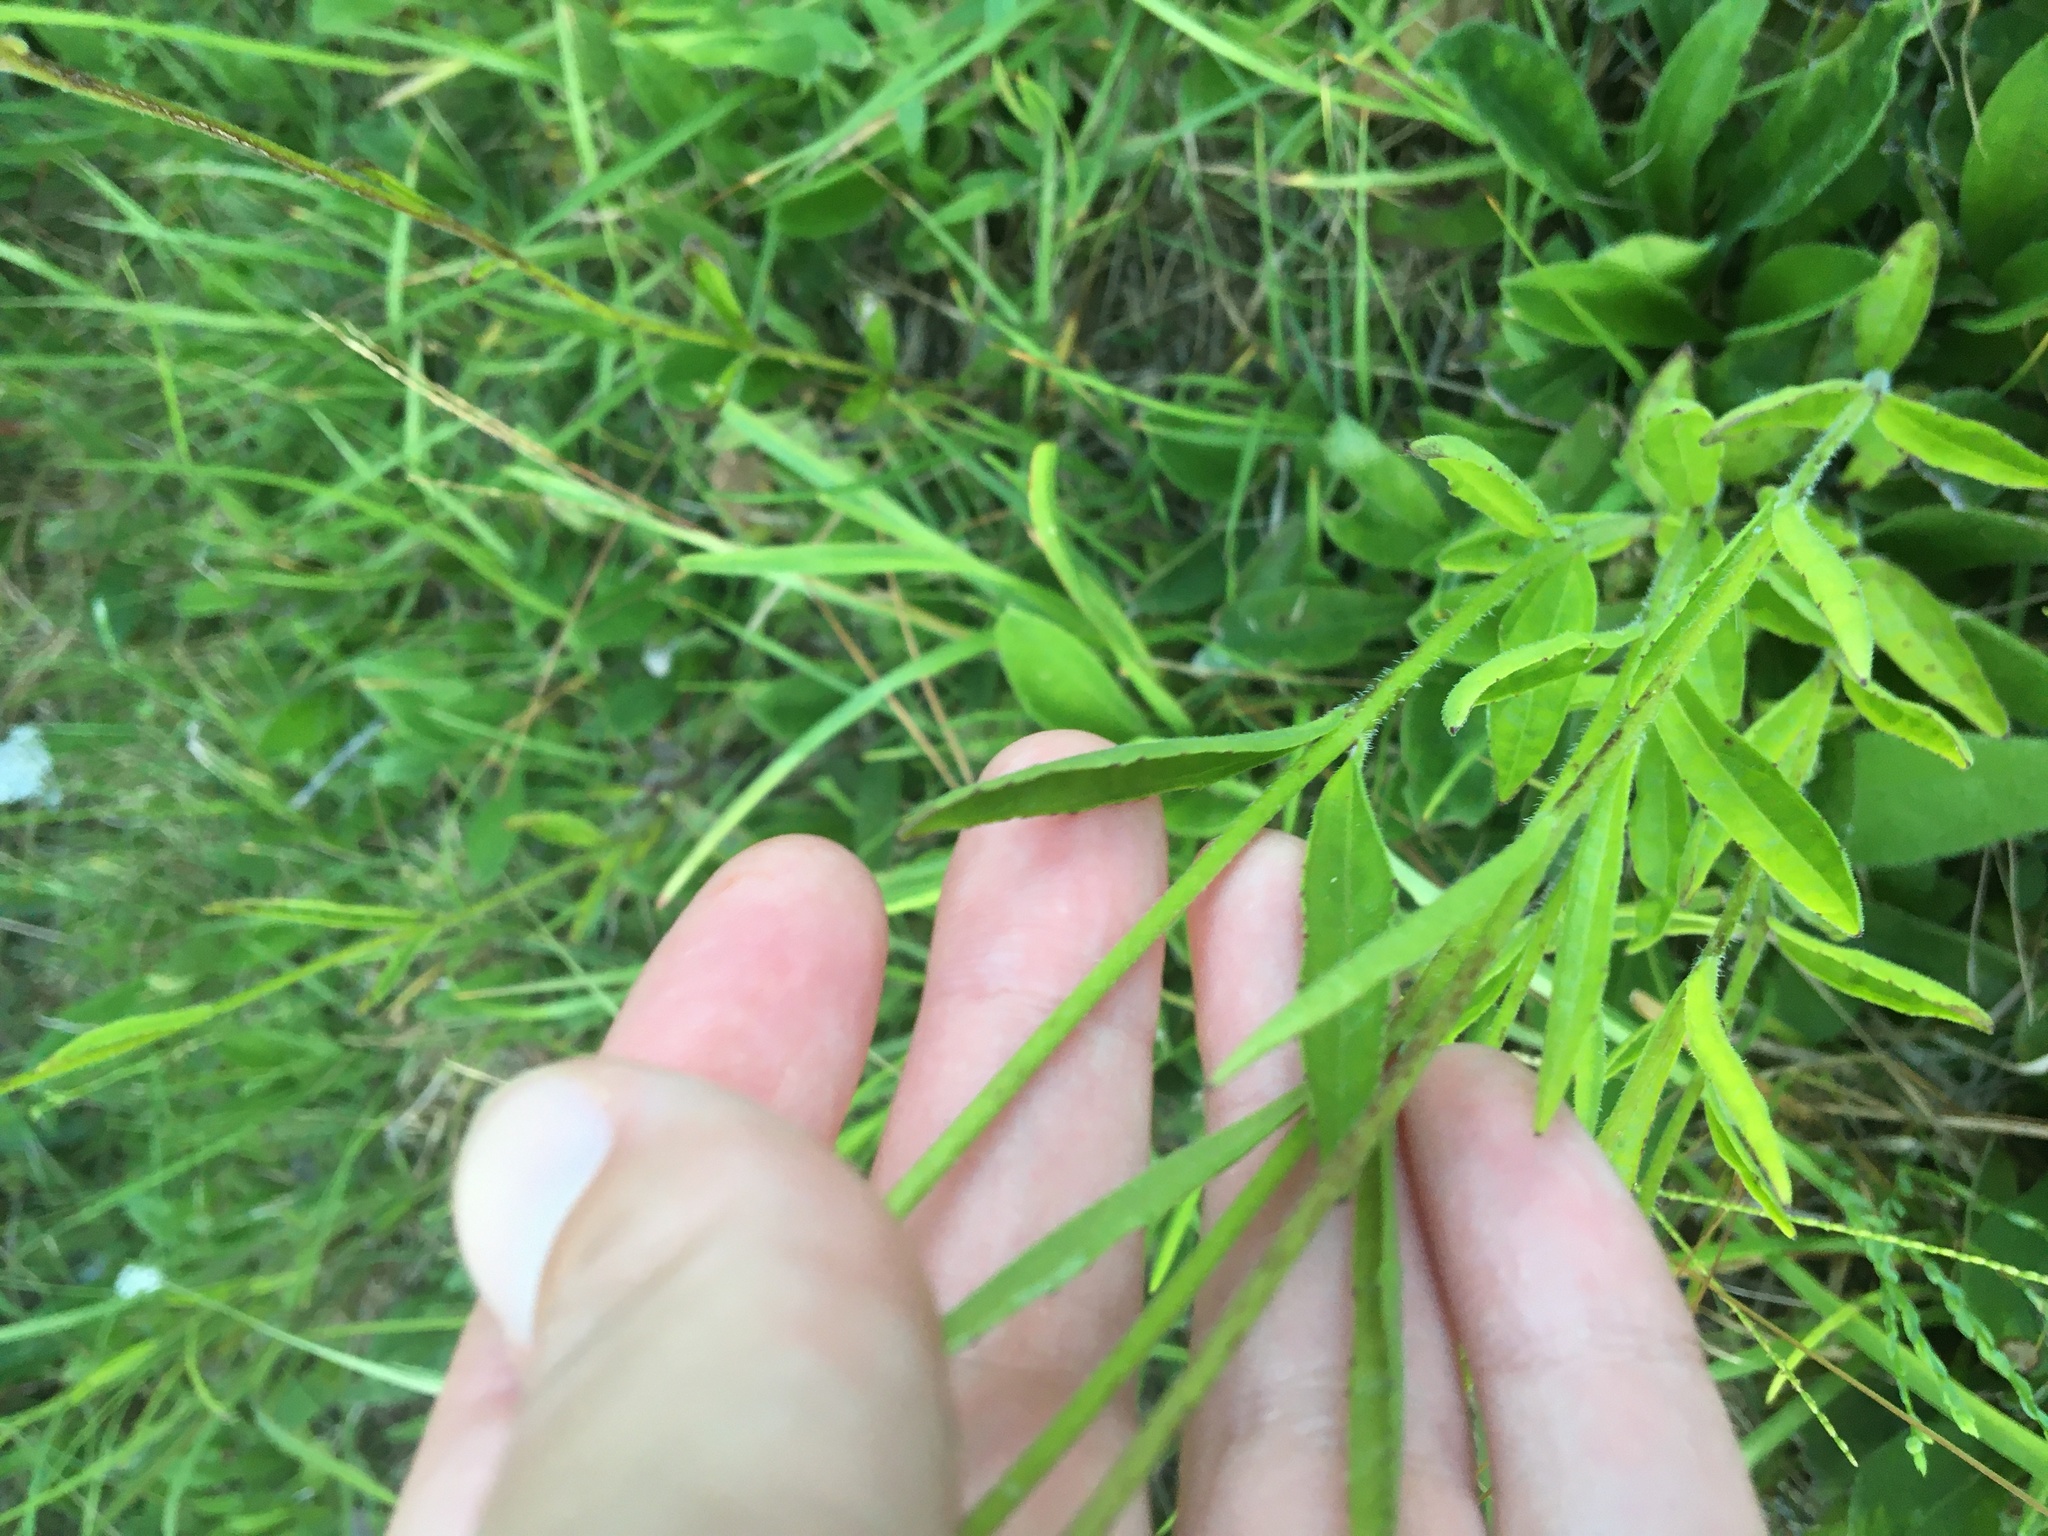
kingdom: Plantae
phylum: Tracheophyta
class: Magnoliopsida
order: Lamiales
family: Orobanchaceae
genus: Buchnera
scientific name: Buchnera floridana
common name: Florida bluehearts
